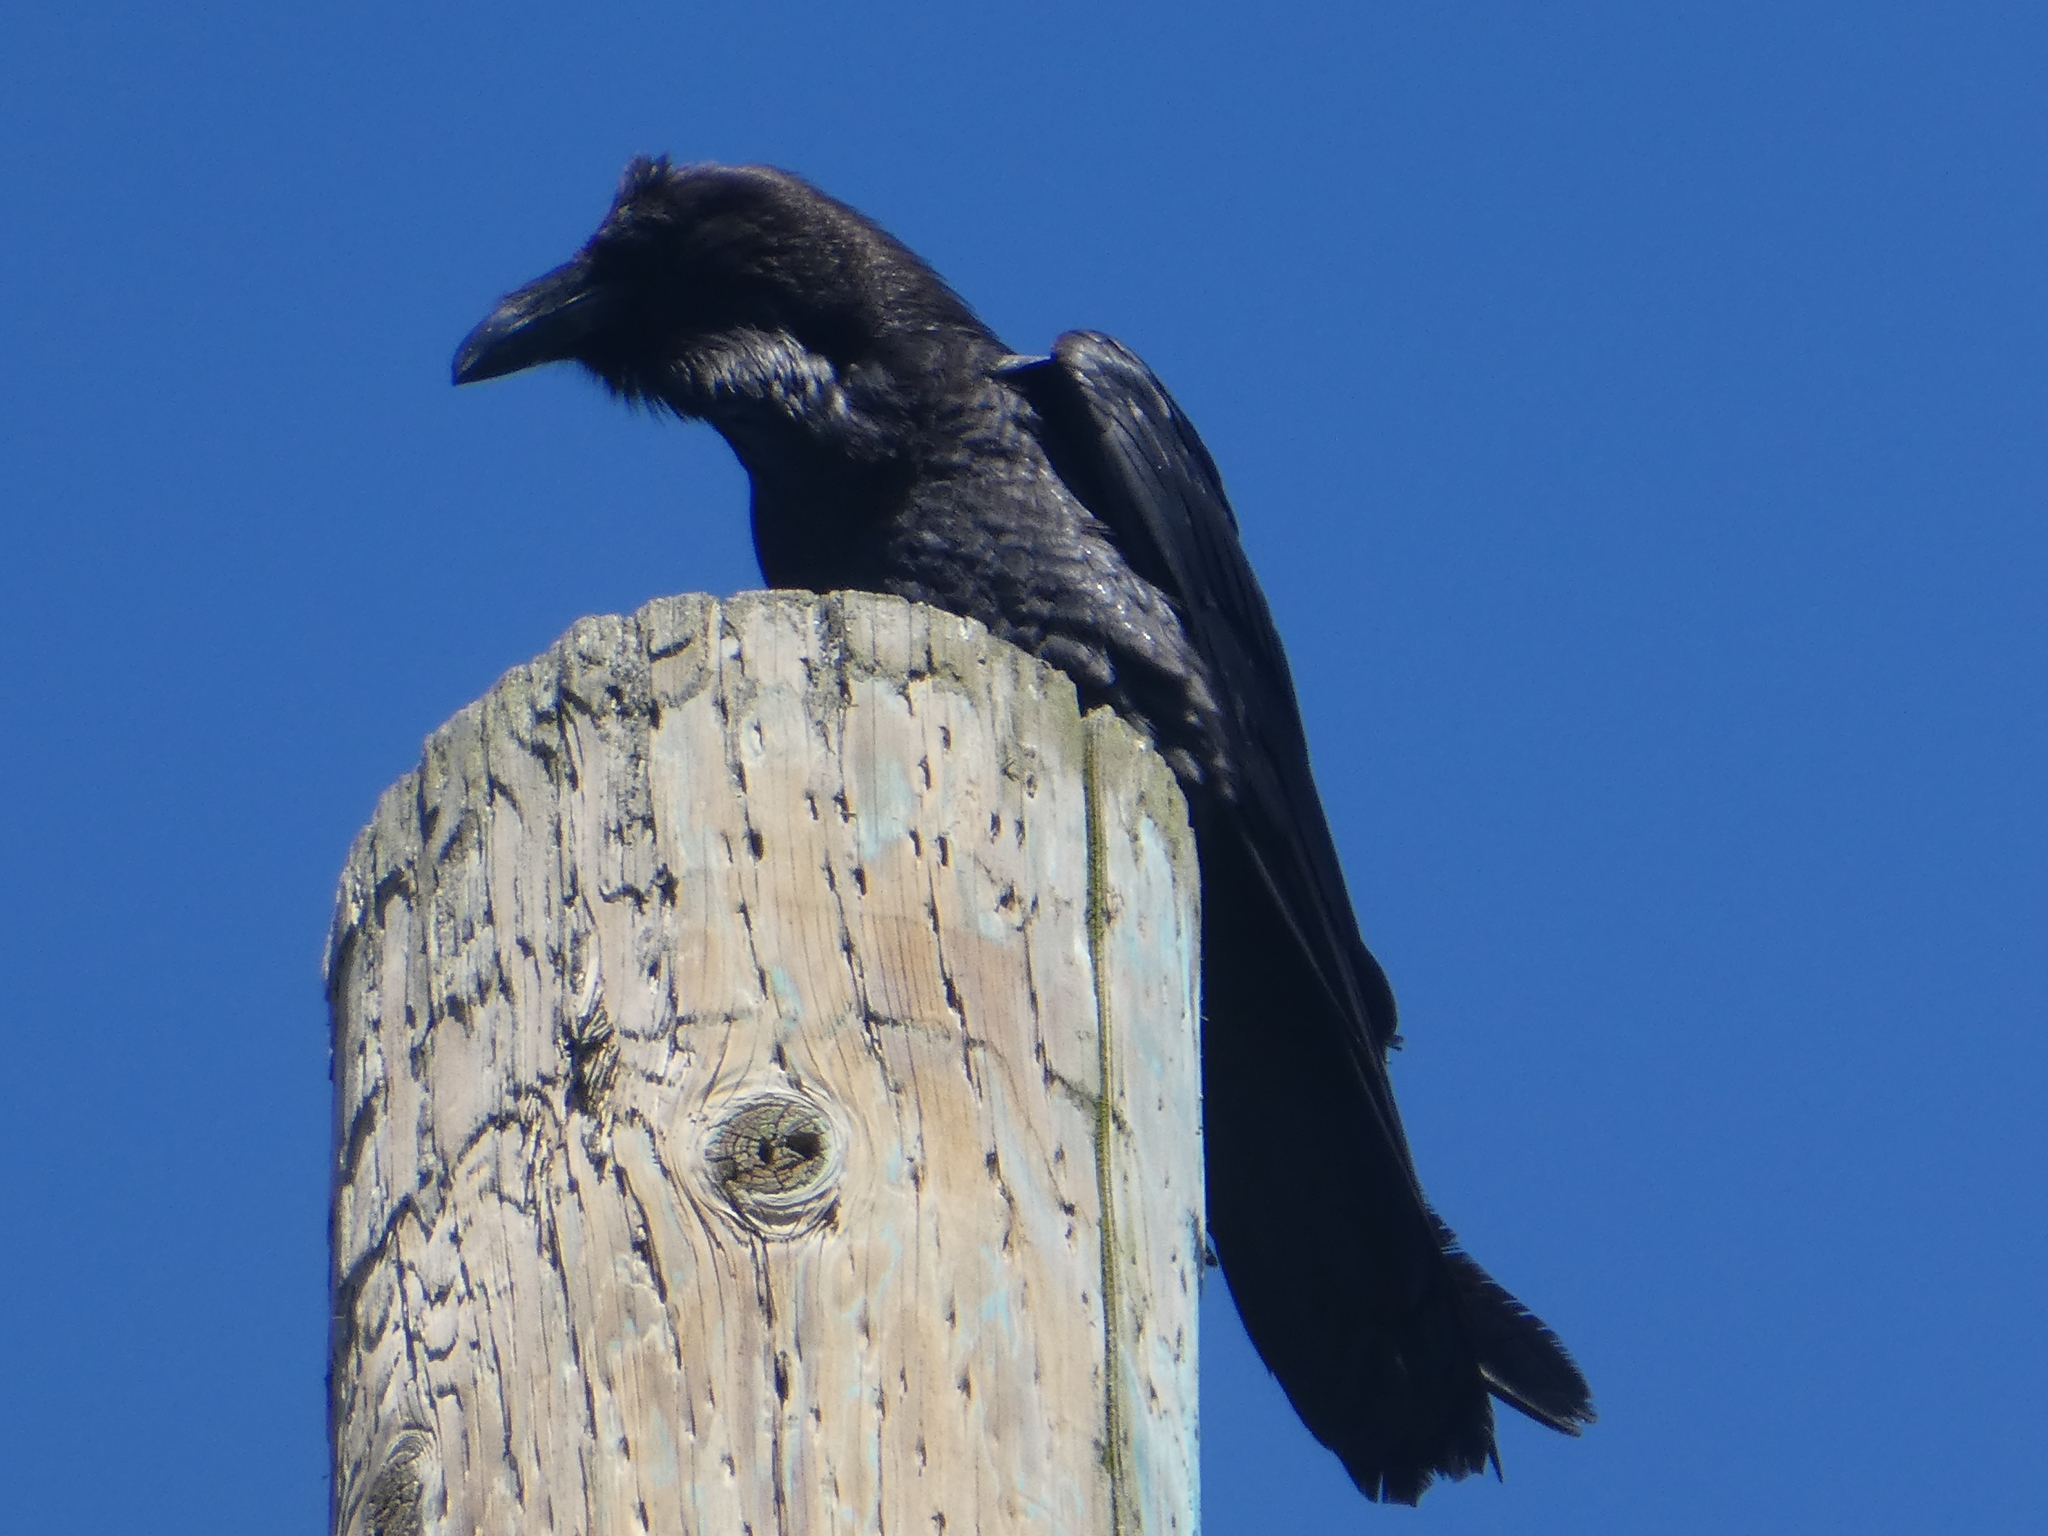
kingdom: Animalia
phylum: Chordata
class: Aves
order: Passeriformes
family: Corvidae
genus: Corvus
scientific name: Corvus corax
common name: Common raven
